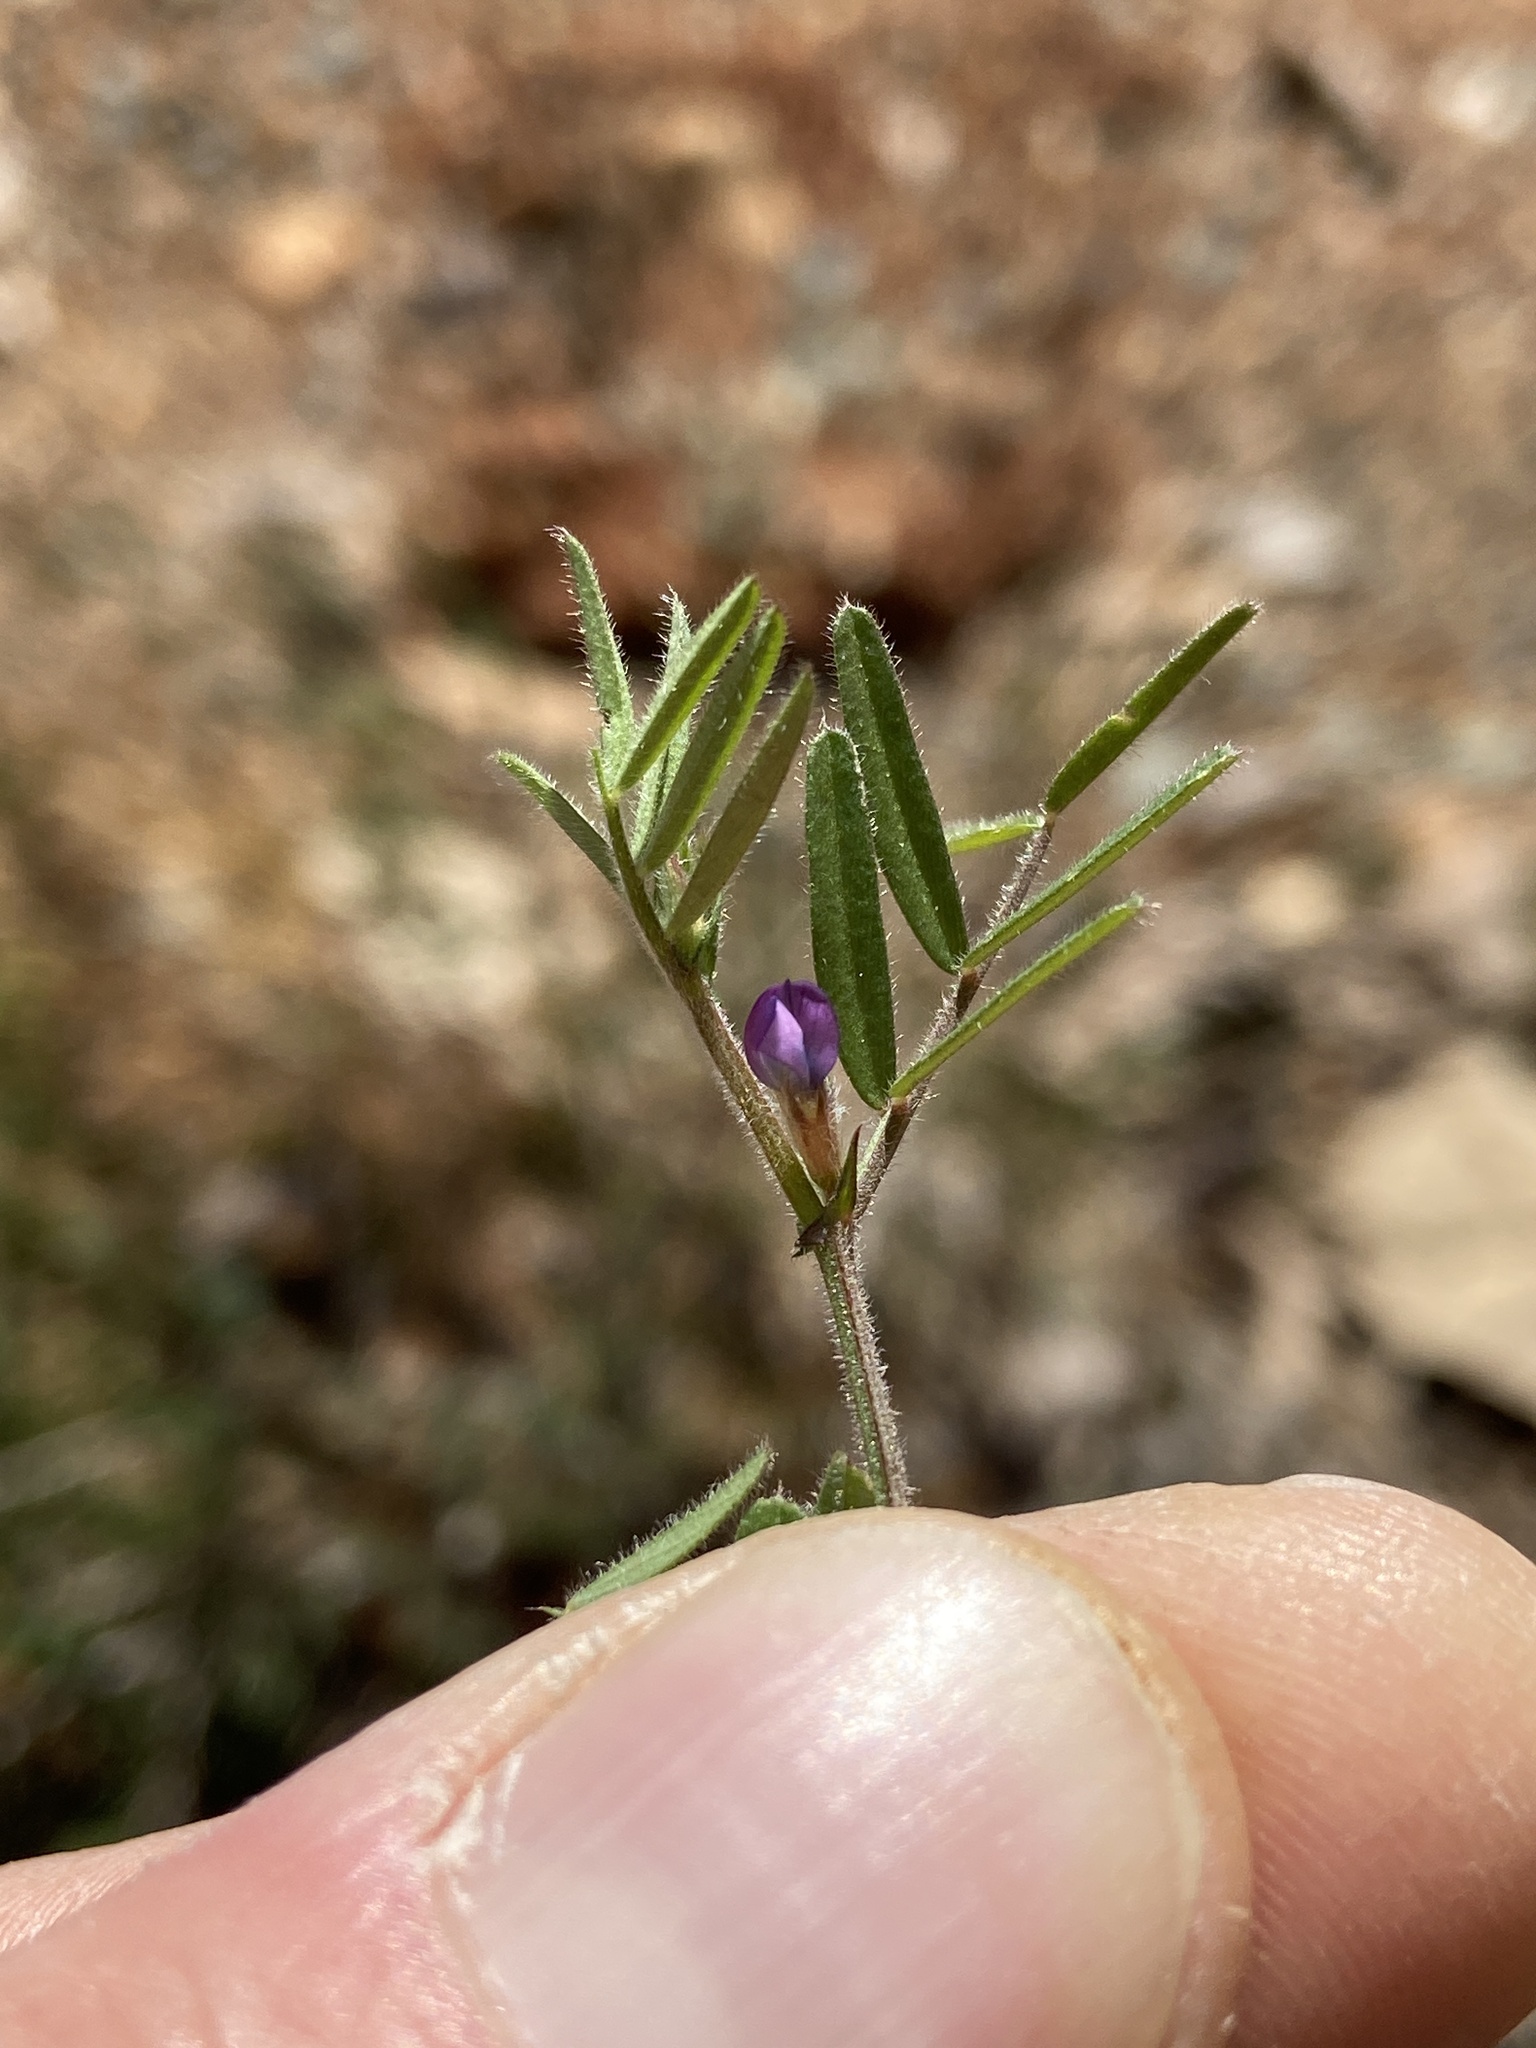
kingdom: Plantae
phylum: Tracheophyta
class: Magnoliopsida
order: Fabales
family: Fabaceae
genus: Vicia
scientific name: Vicia lathyroides
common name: Spring vetch
